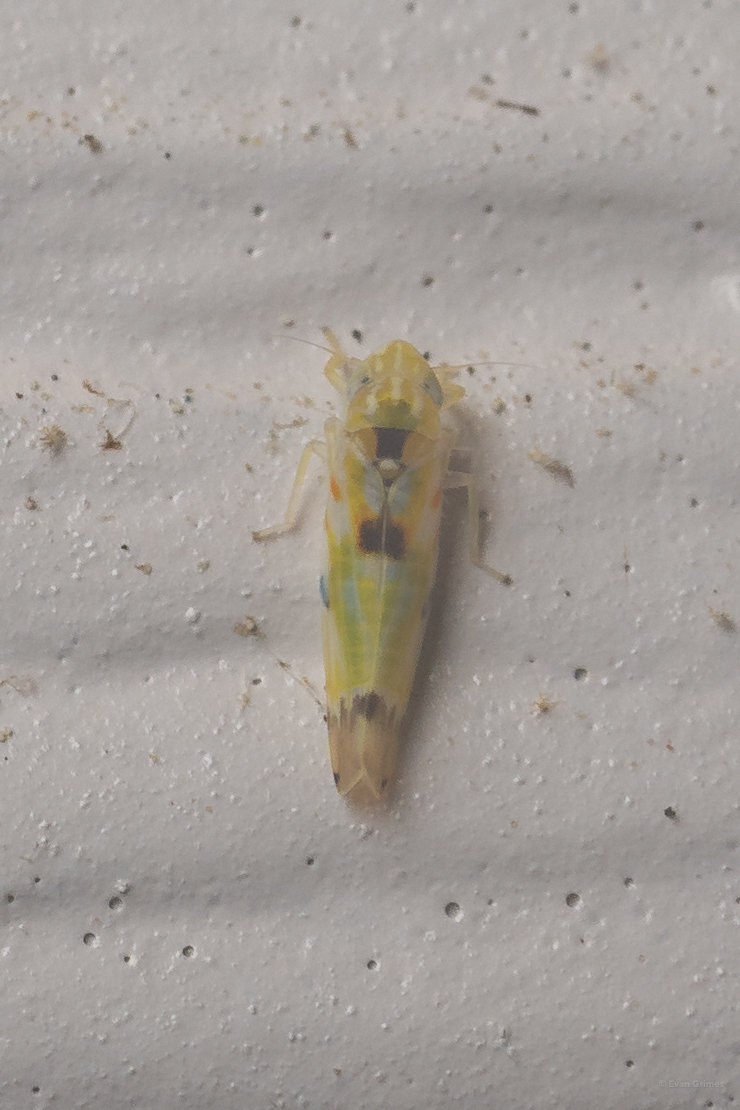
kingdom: Animalia
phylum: Arthropoda
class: Insecta
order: Hemiptera
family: Cicadellidae
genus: Erythroneura
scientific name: Erythroneura octonotata
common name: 8-spotted leafhopper
